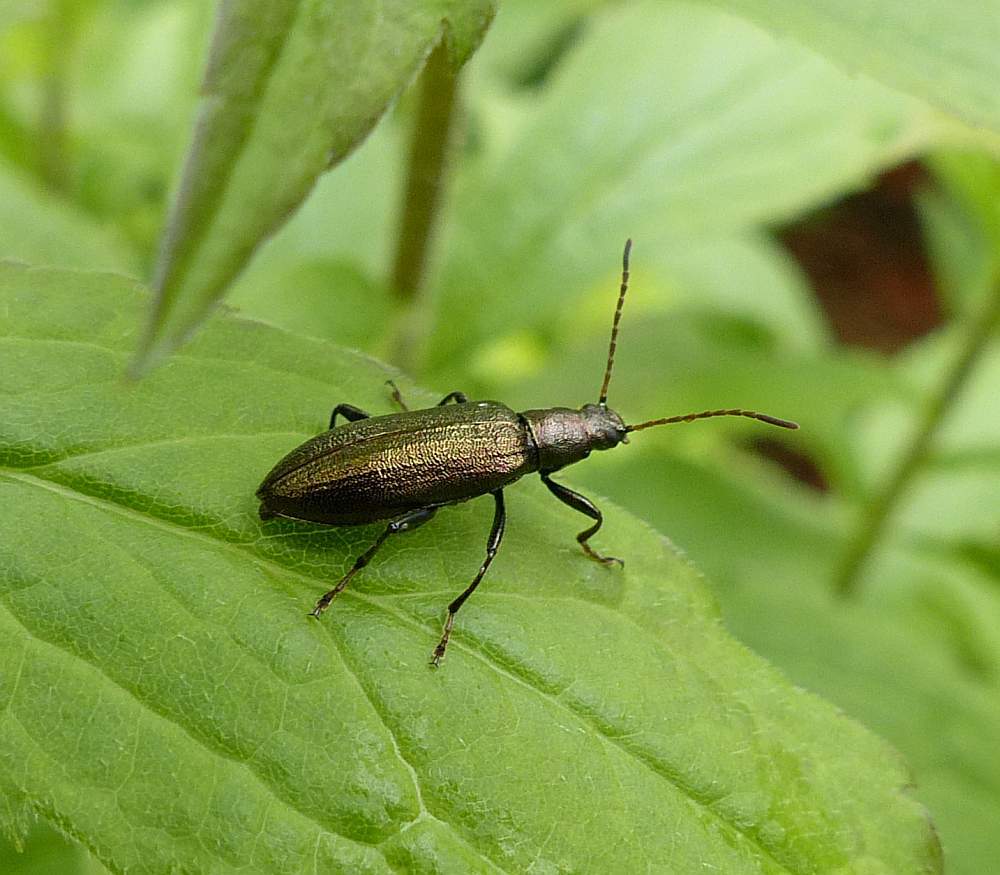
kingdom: Animalia
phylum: Arthropoda
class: Insecta
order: Coleoptera
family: Tenebrionidae
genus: Arthromacra
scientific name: Arthromacra aenea
